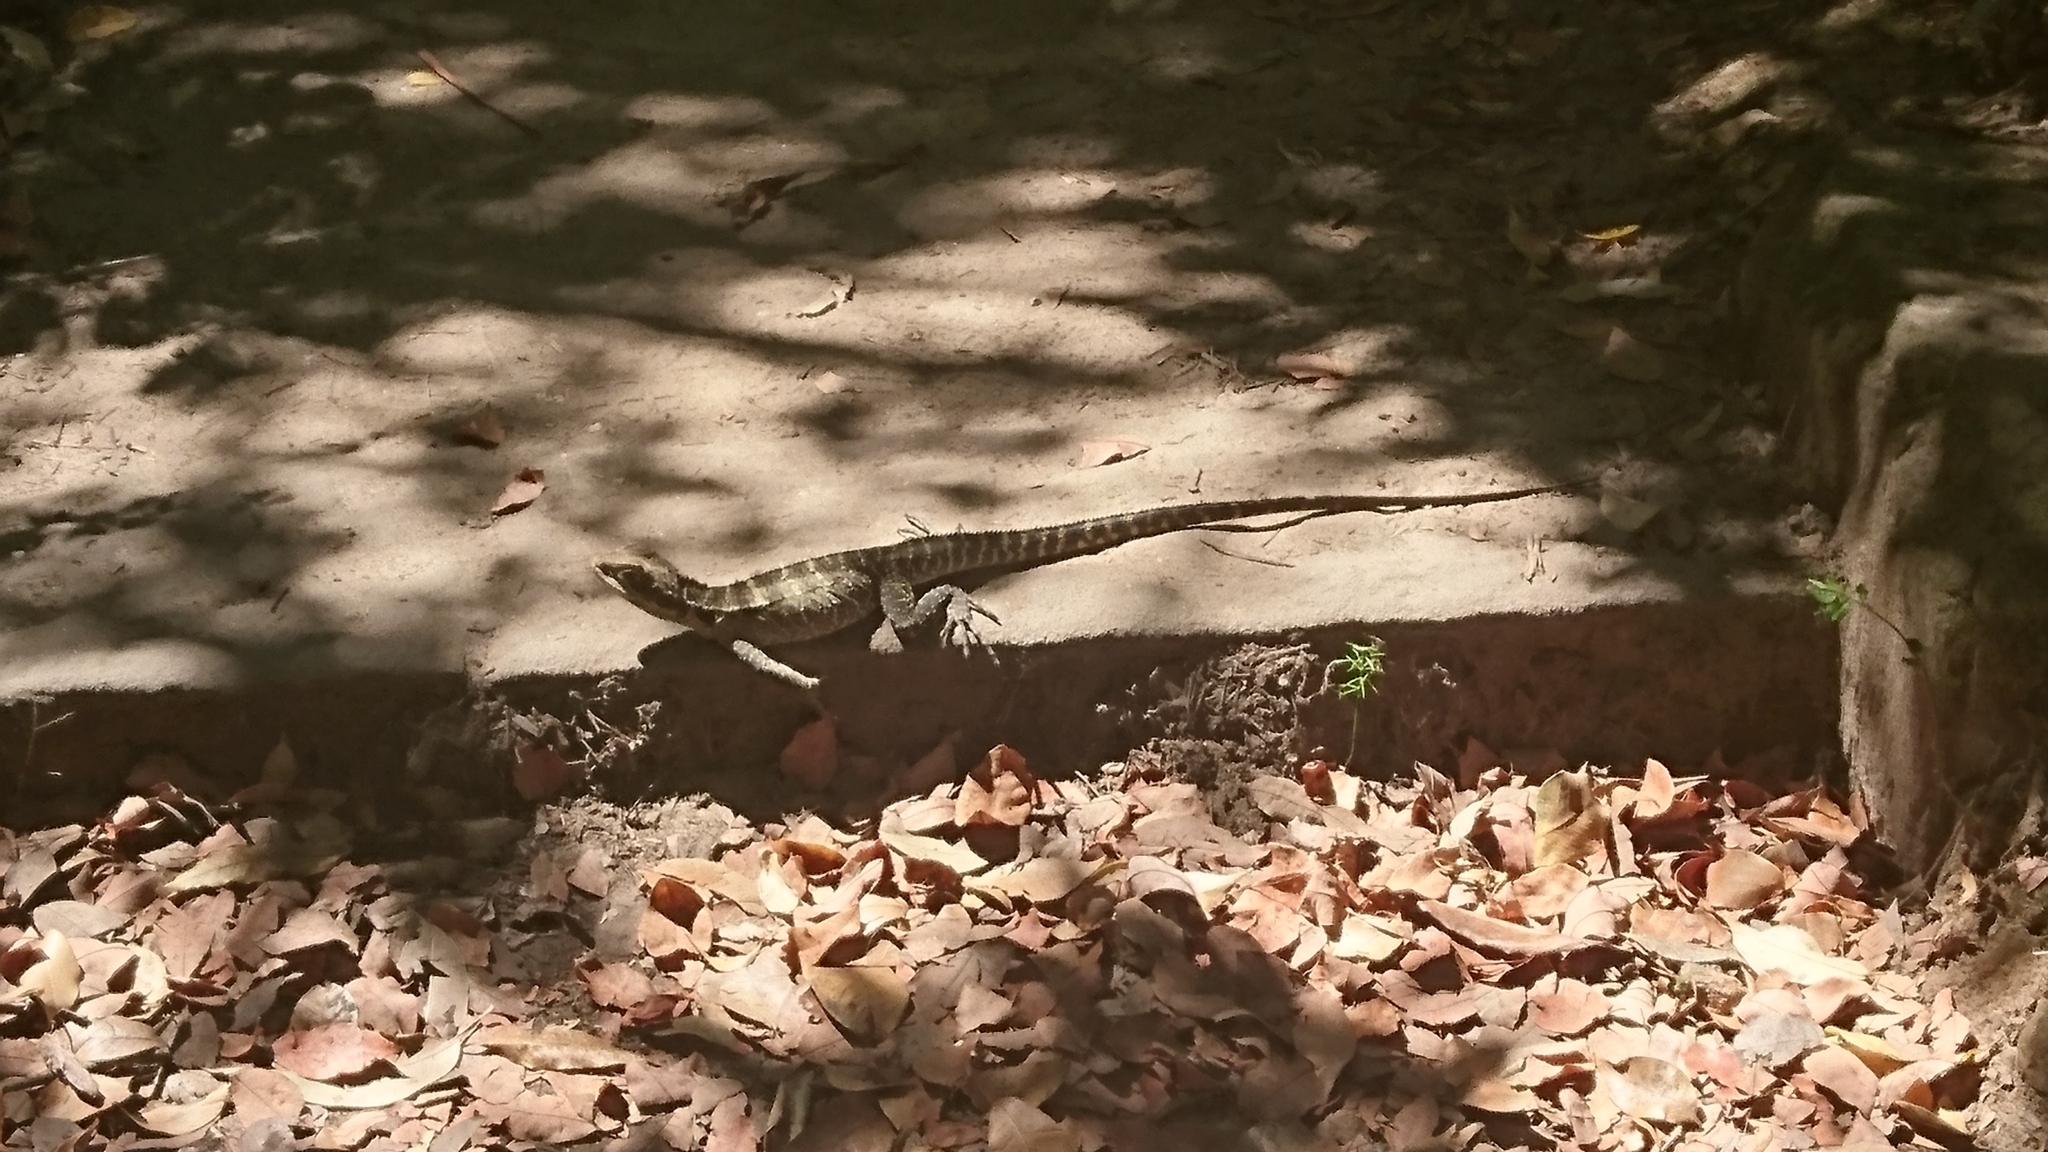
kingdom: Animalia
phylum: Chordata
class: Squamata
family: Agamidae
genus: Intellagama
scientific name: Intellagama lesueurii
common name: Eastern water dragon
